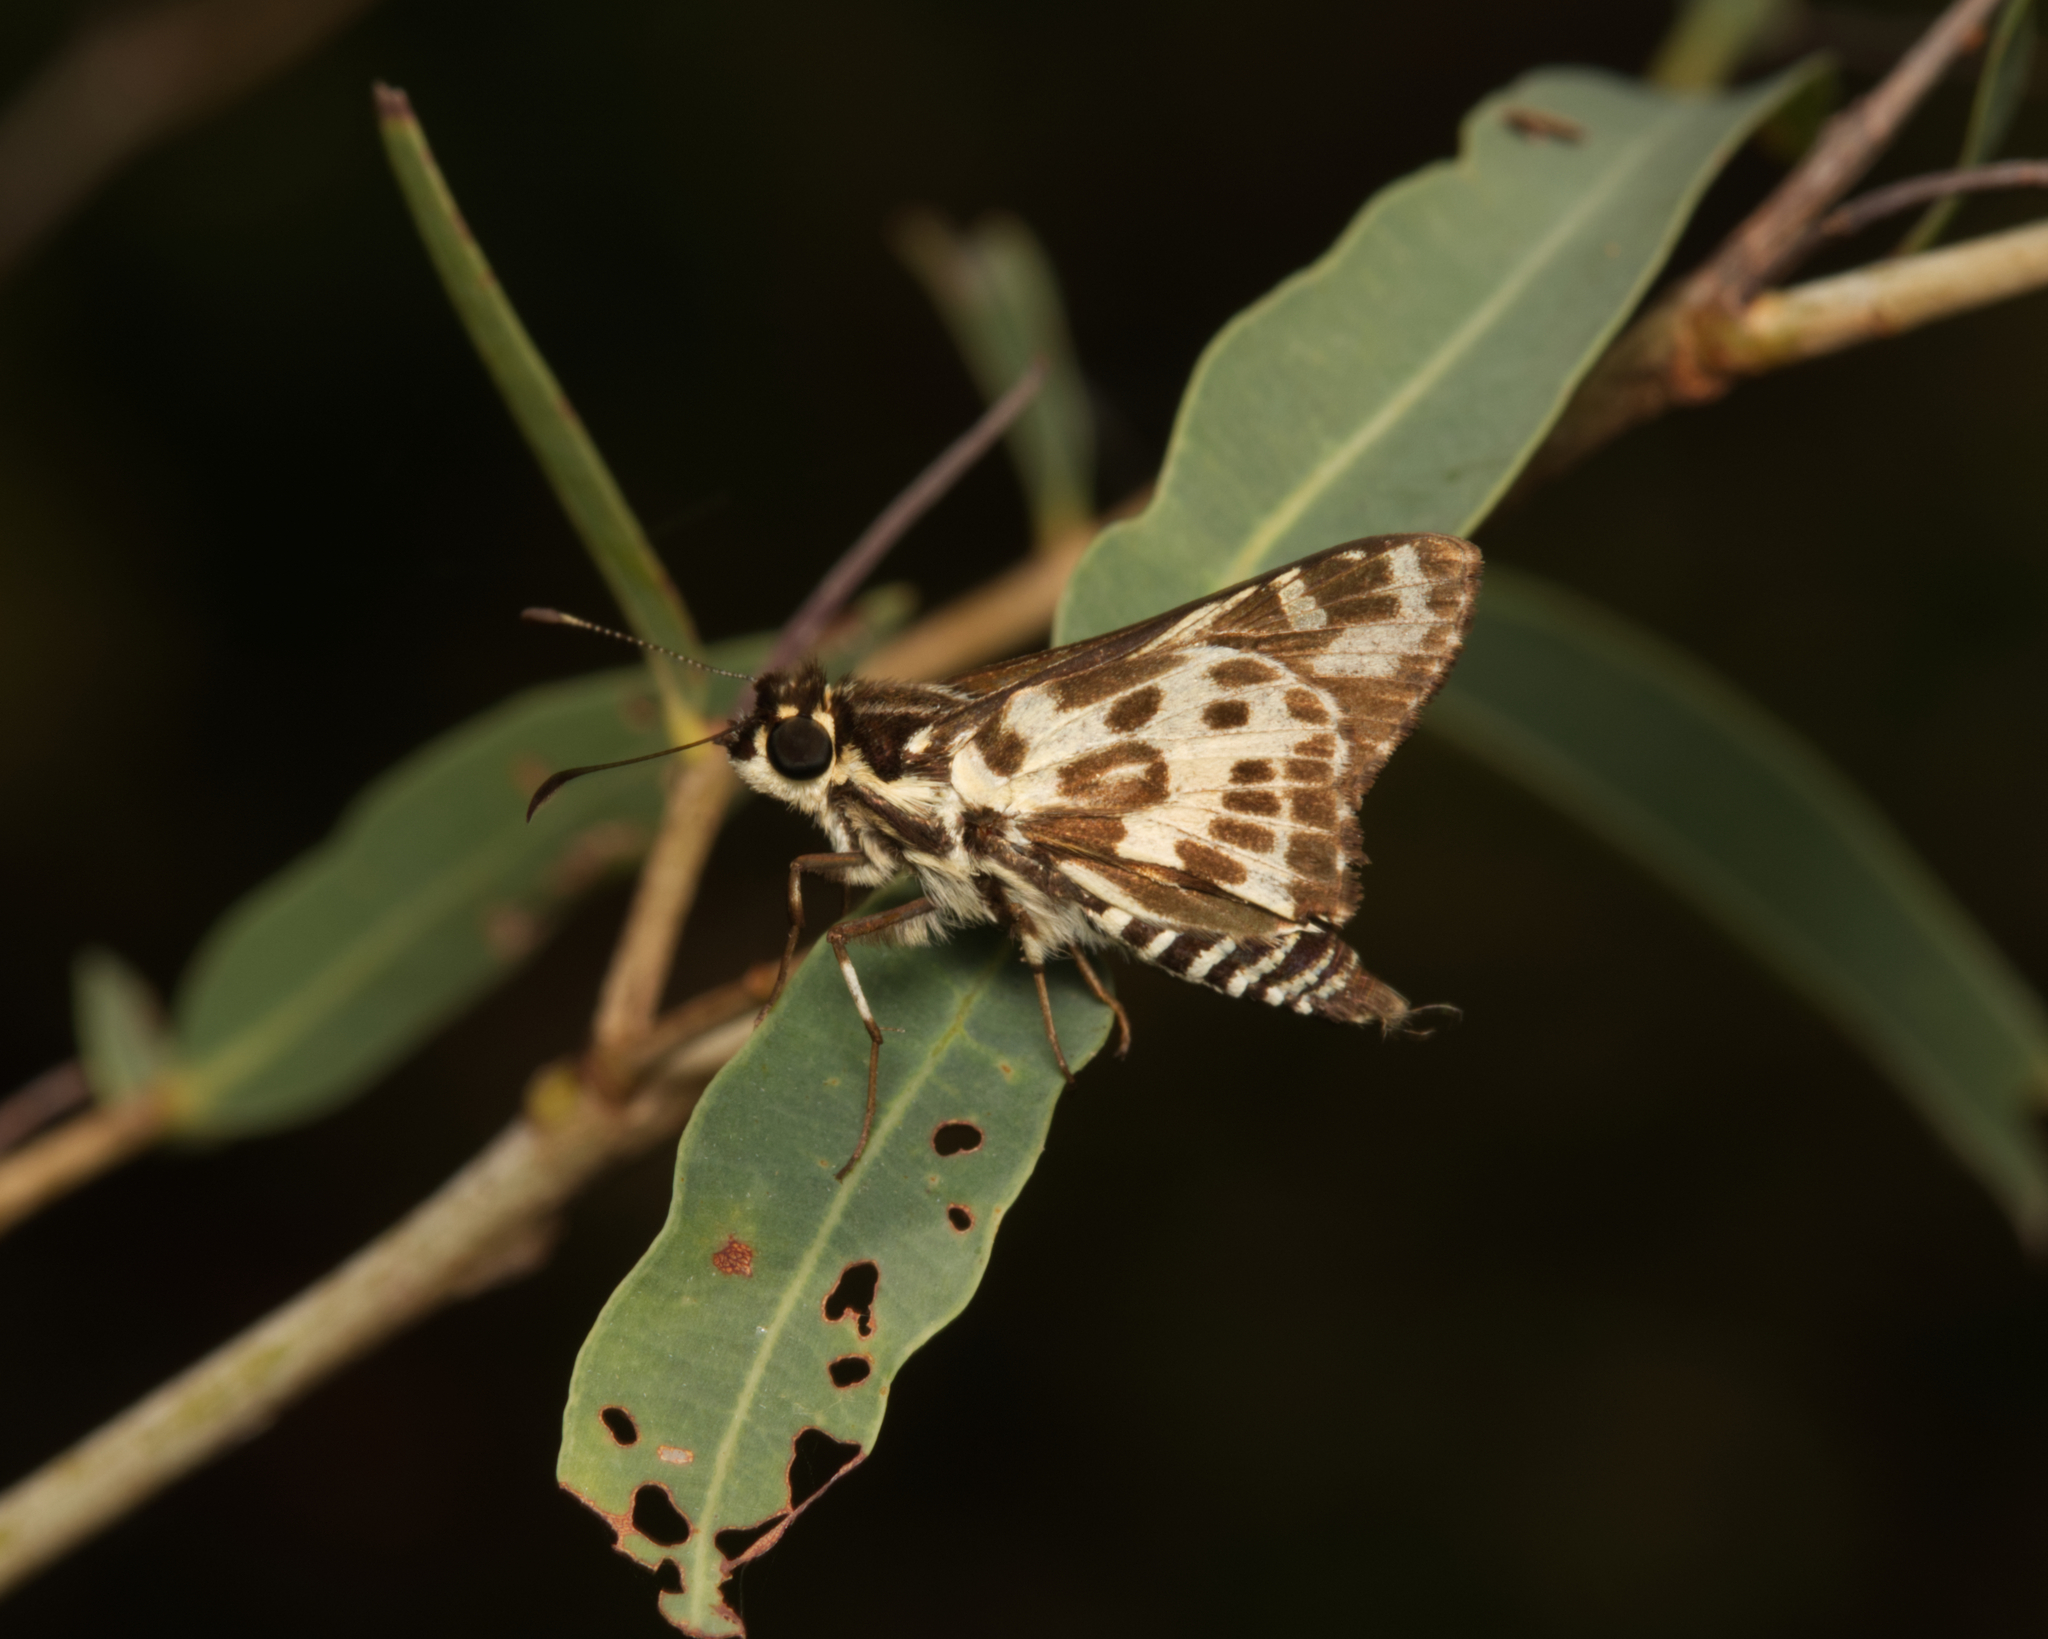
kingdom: Animalia
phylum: Arthropoda
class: Insecta
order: Lepidoptera
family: Hesperiidae
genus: Hesperilla
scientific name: Hesperilla ornata
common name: Spotted sedge-skipper
